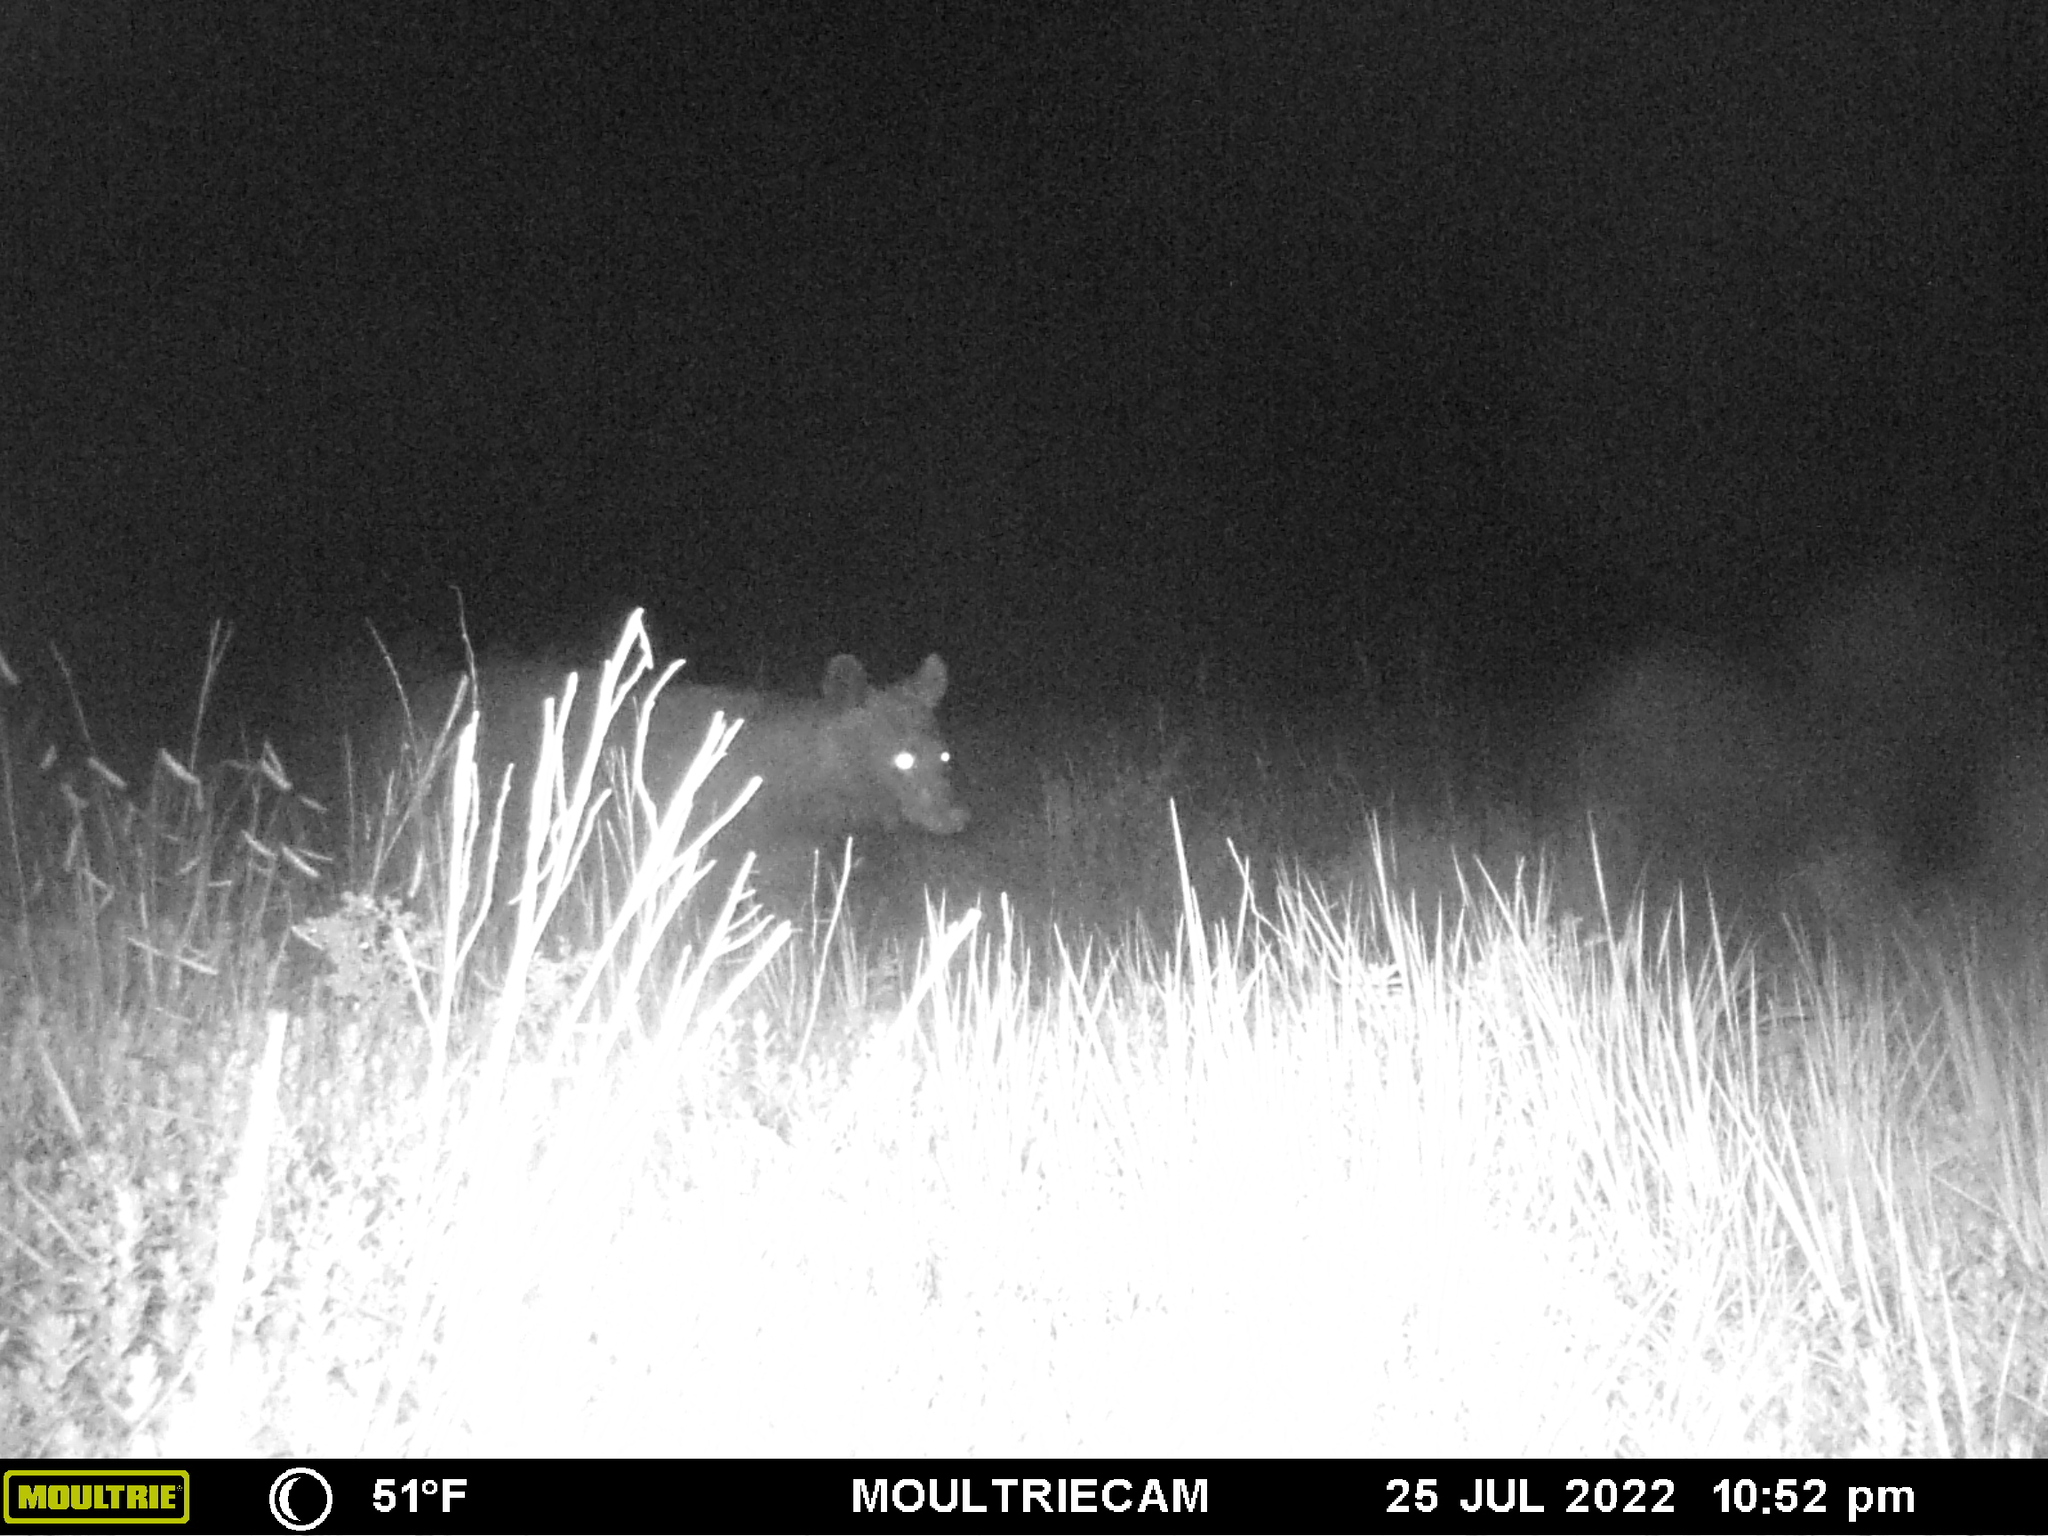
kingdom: Animalia
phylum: Chordata
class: Mammalia
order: Carnivora
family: Ursidae
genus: Ursus
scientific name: Ursus americanus
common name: American black bear
